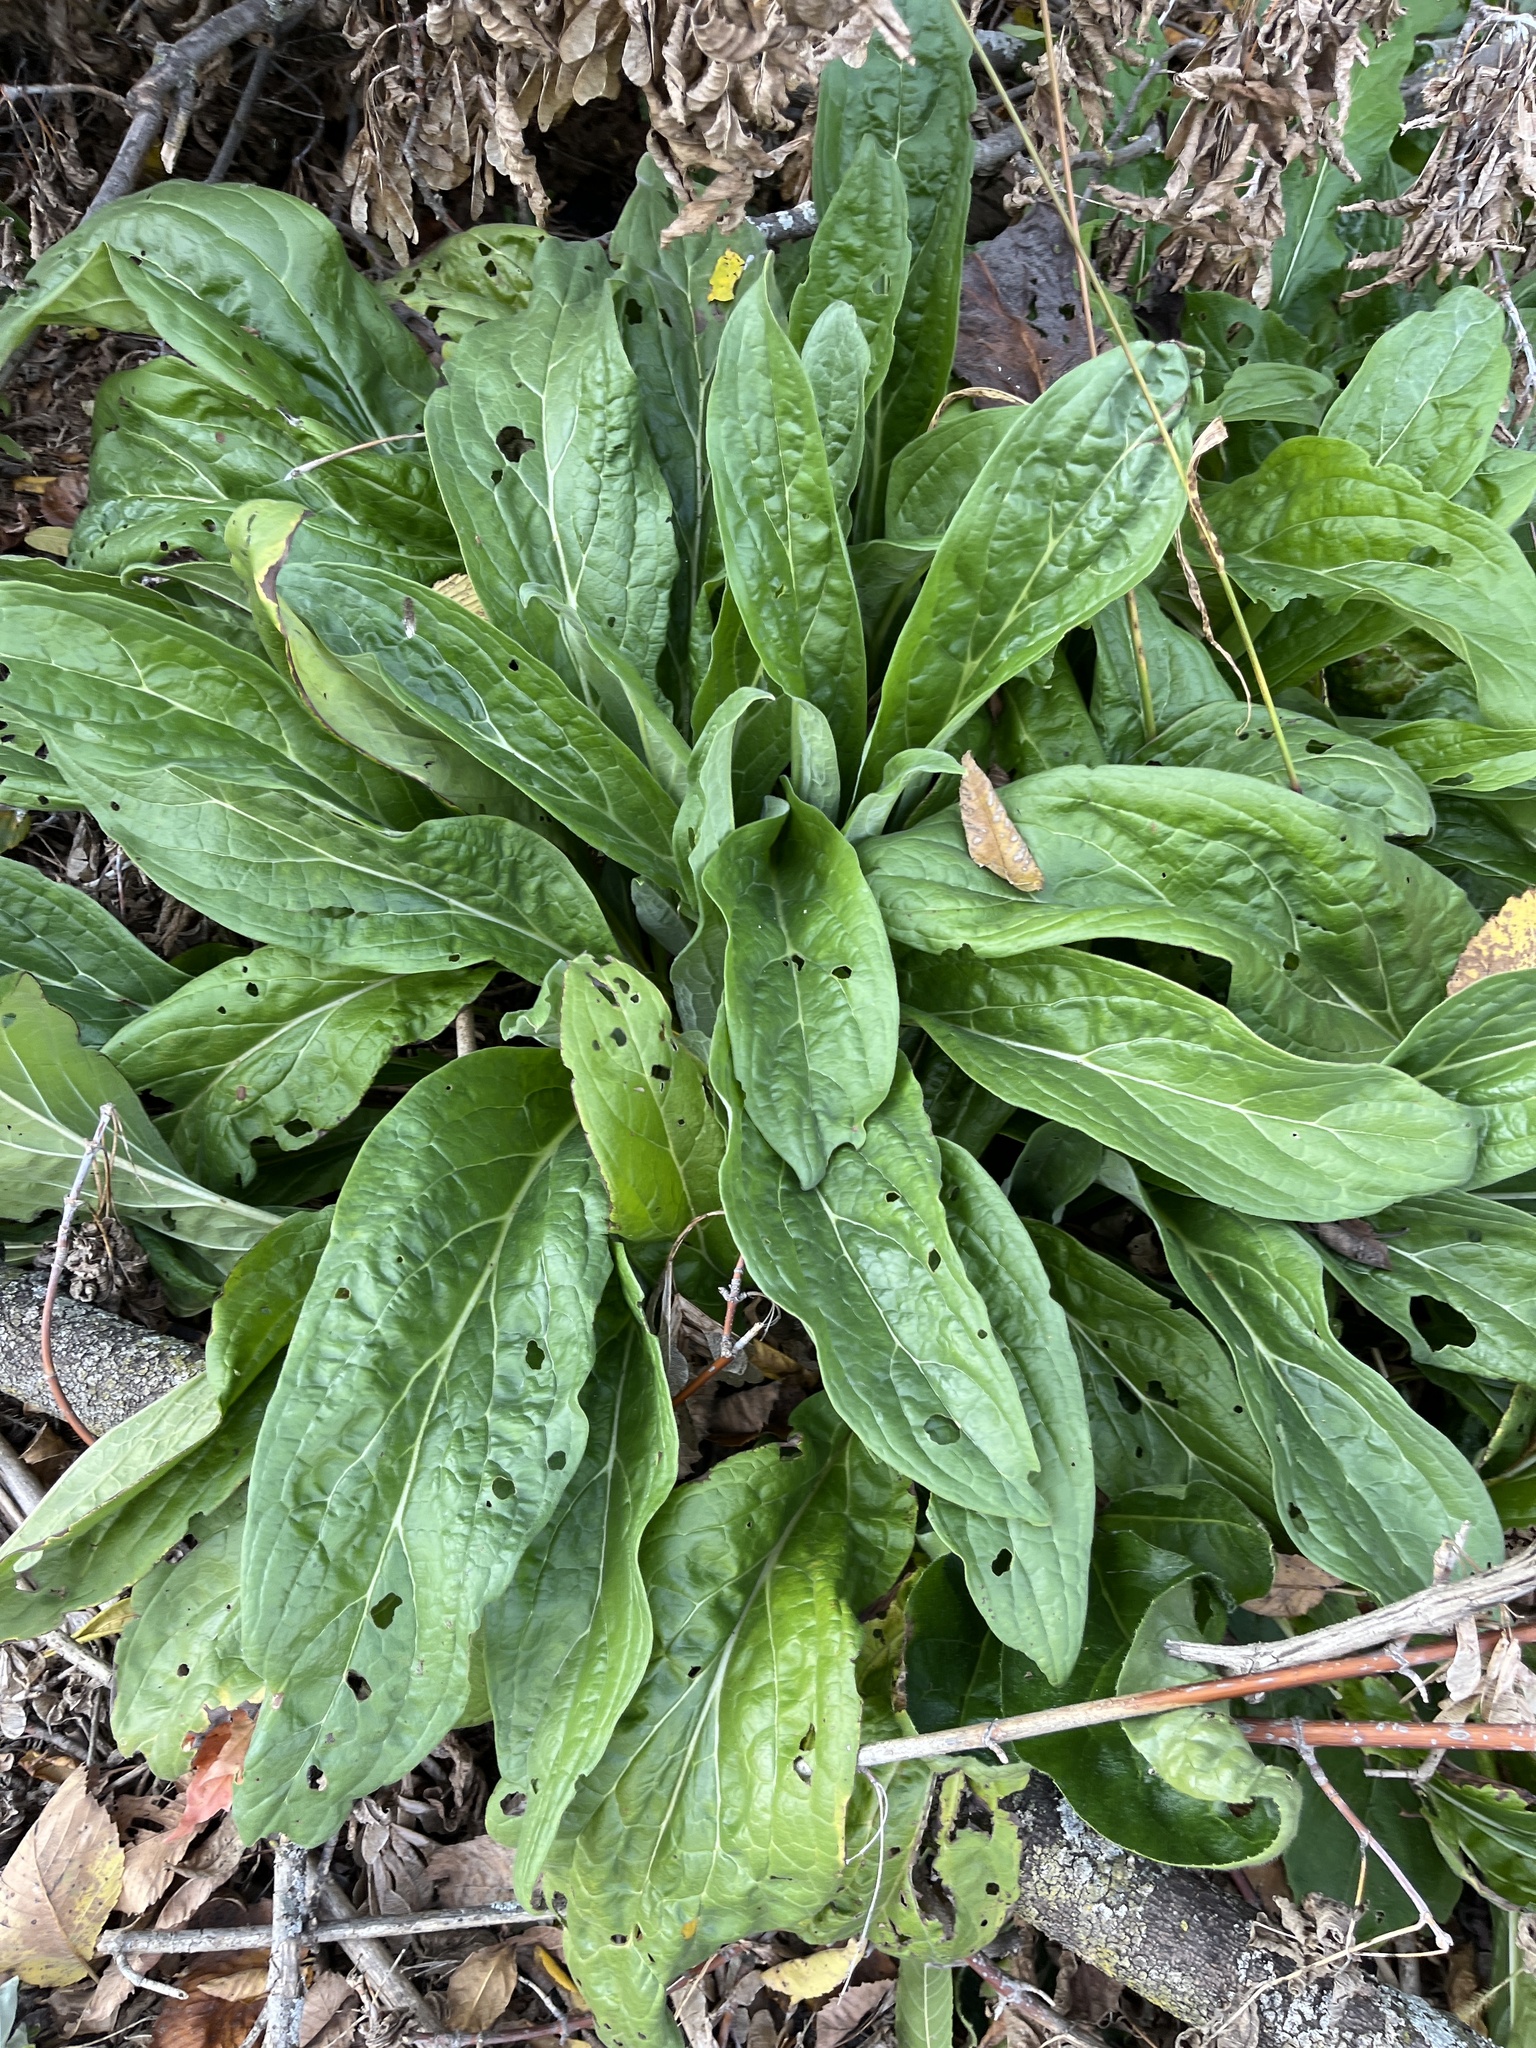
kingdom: Plantae
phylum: Tracheophyta
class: Magnoliopsida
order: Brassicales
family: Brassicaceae
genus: Hesperis
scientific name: Hesperis matronalis
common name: Dame's-violet
